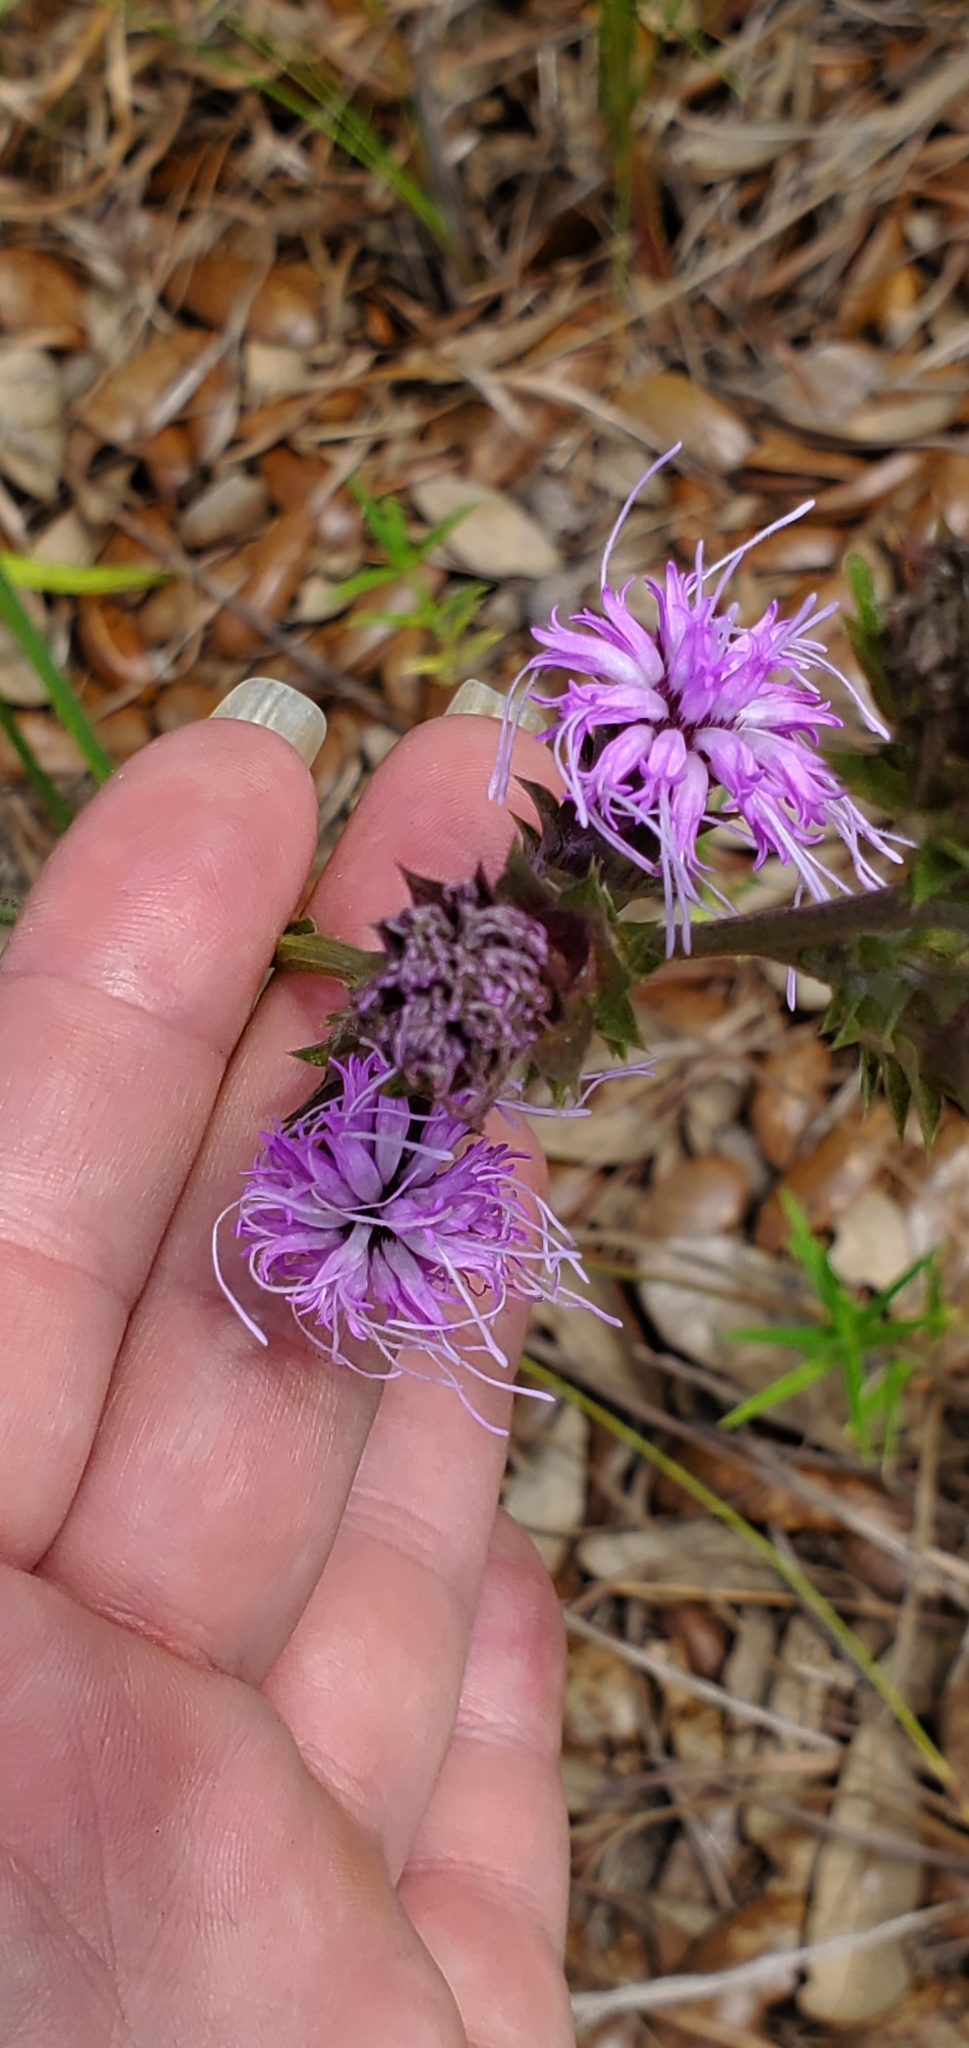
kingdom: Plantae
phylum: Tracheophyta
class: Magnoliopsida
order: Asterales
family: Asteraceae
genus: Liatris
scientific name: Liatris squarrosa
